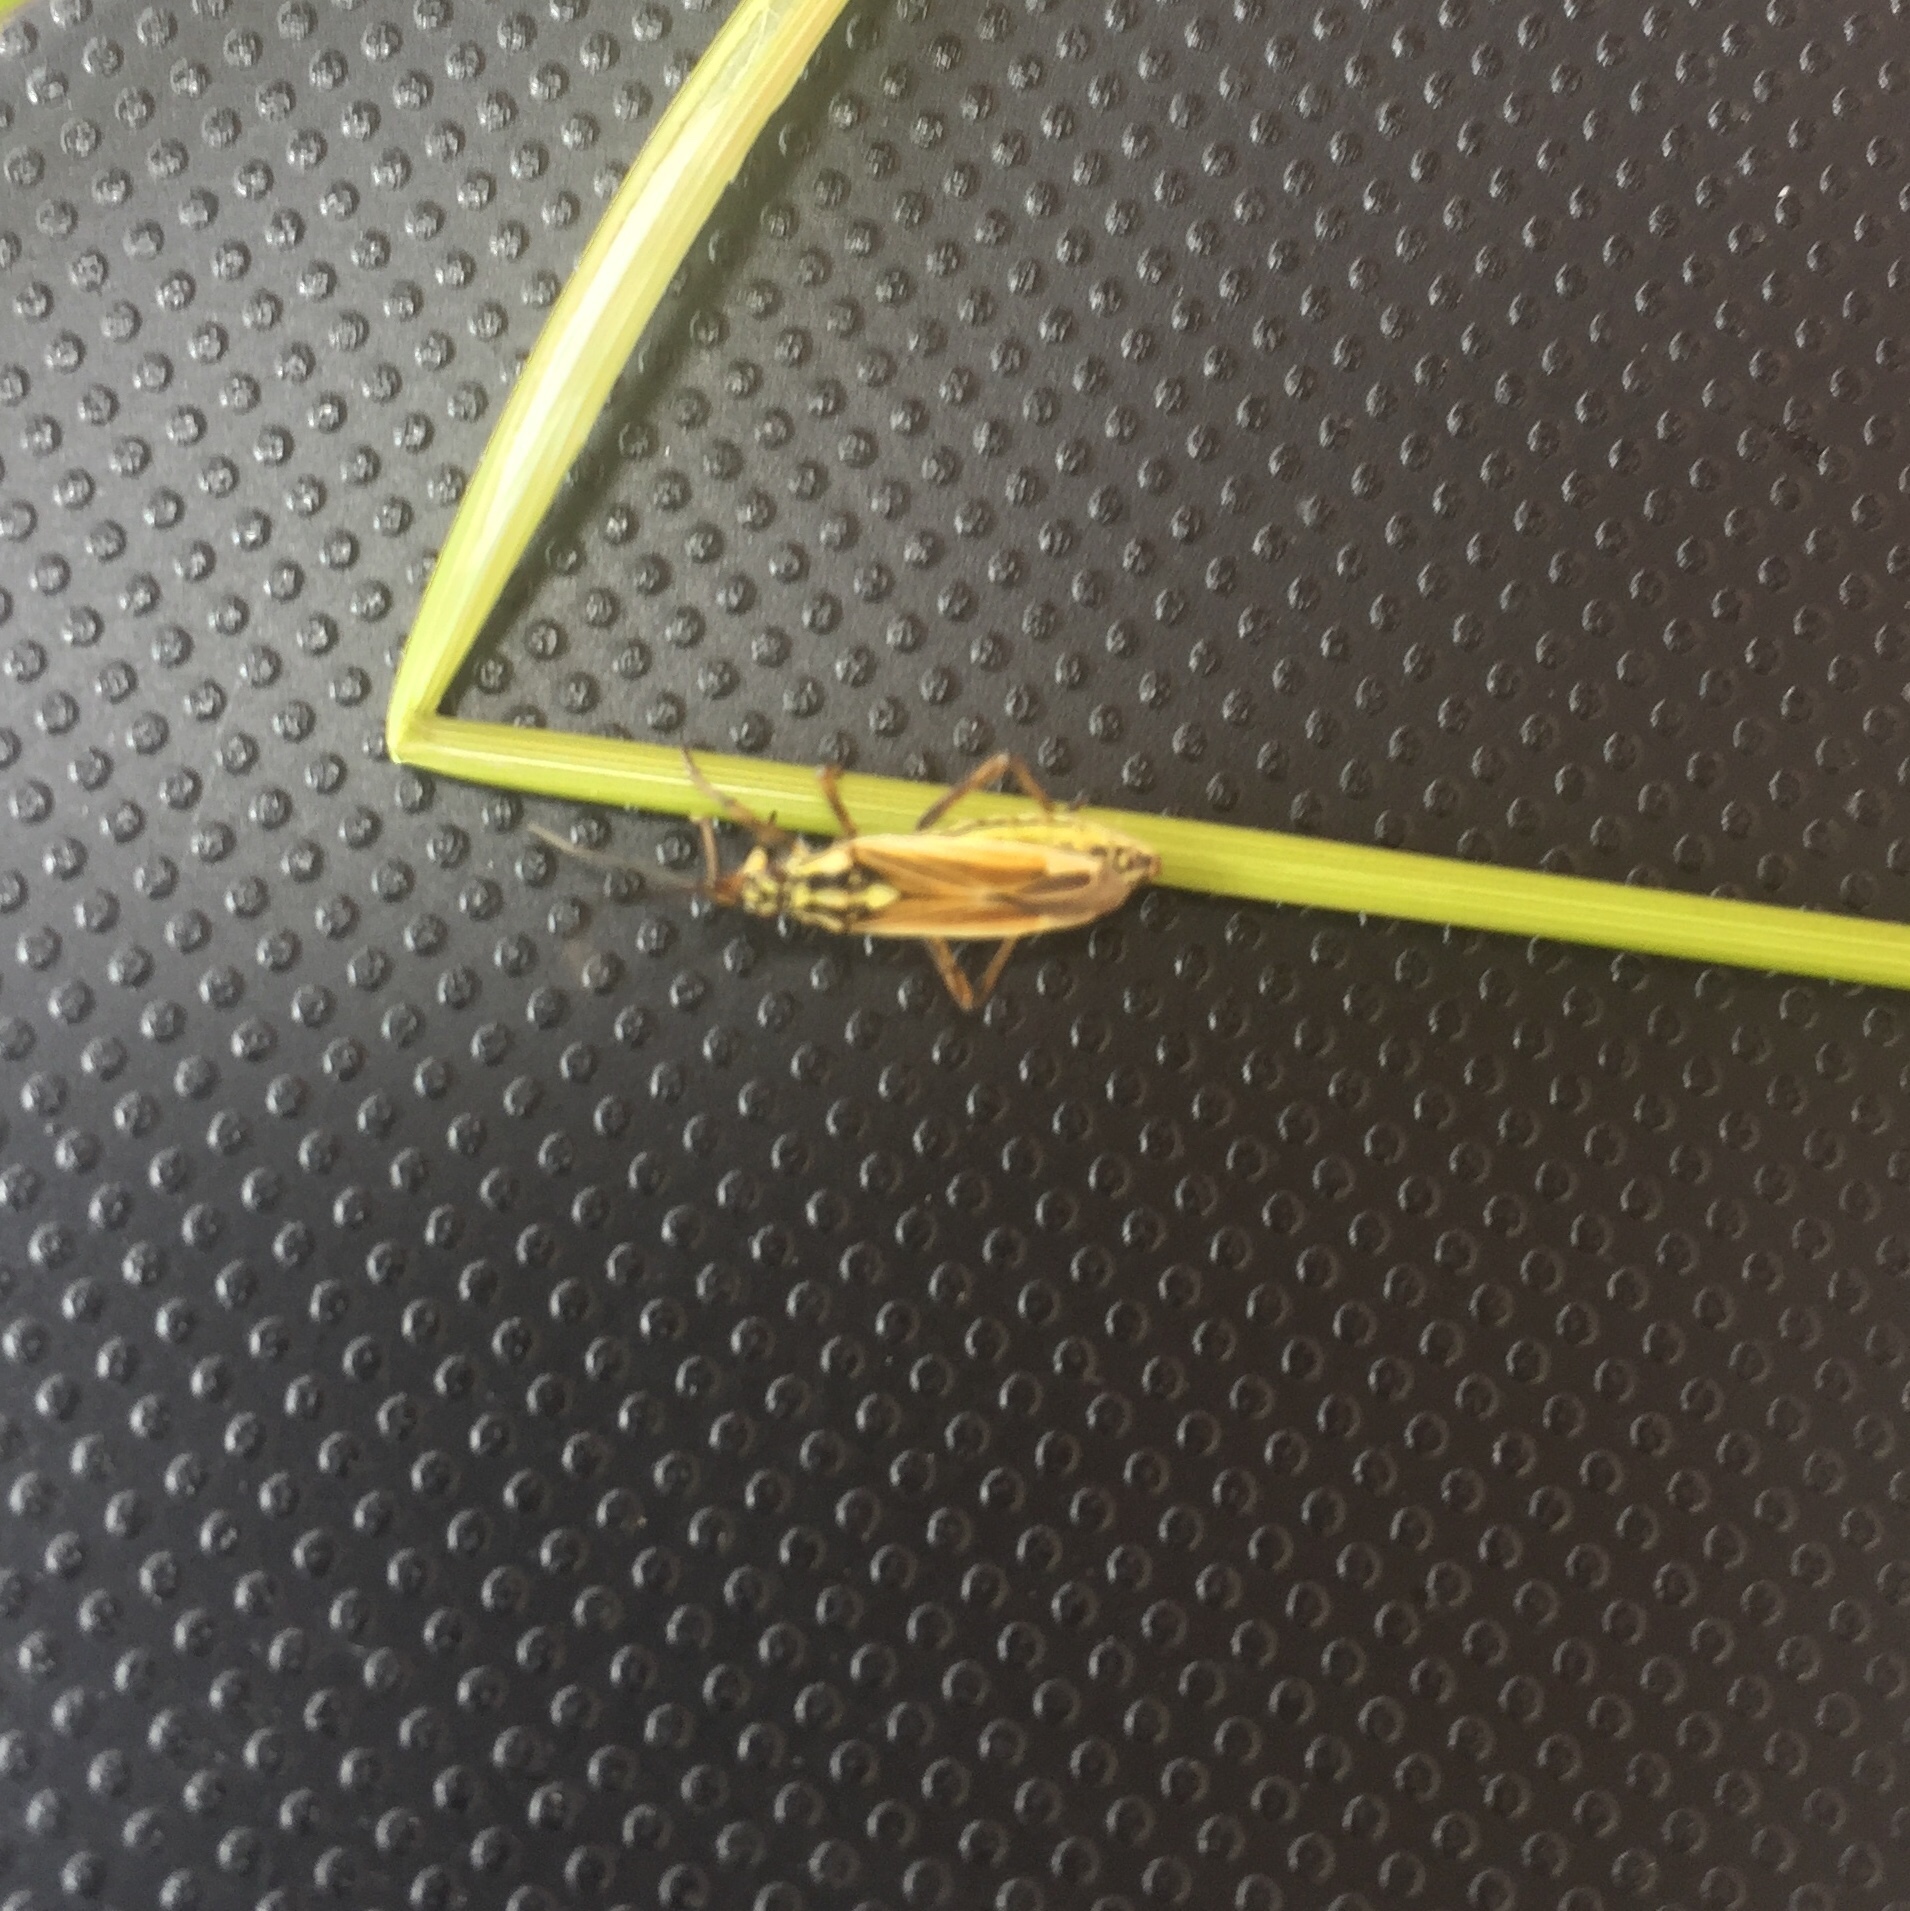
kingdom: Animalia
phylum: Arthropoda
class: Insecta
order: Hemiptera
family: Miridae
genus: Leptopterna
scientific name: Leptopterna dolabrata
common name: Meadow plant bug
